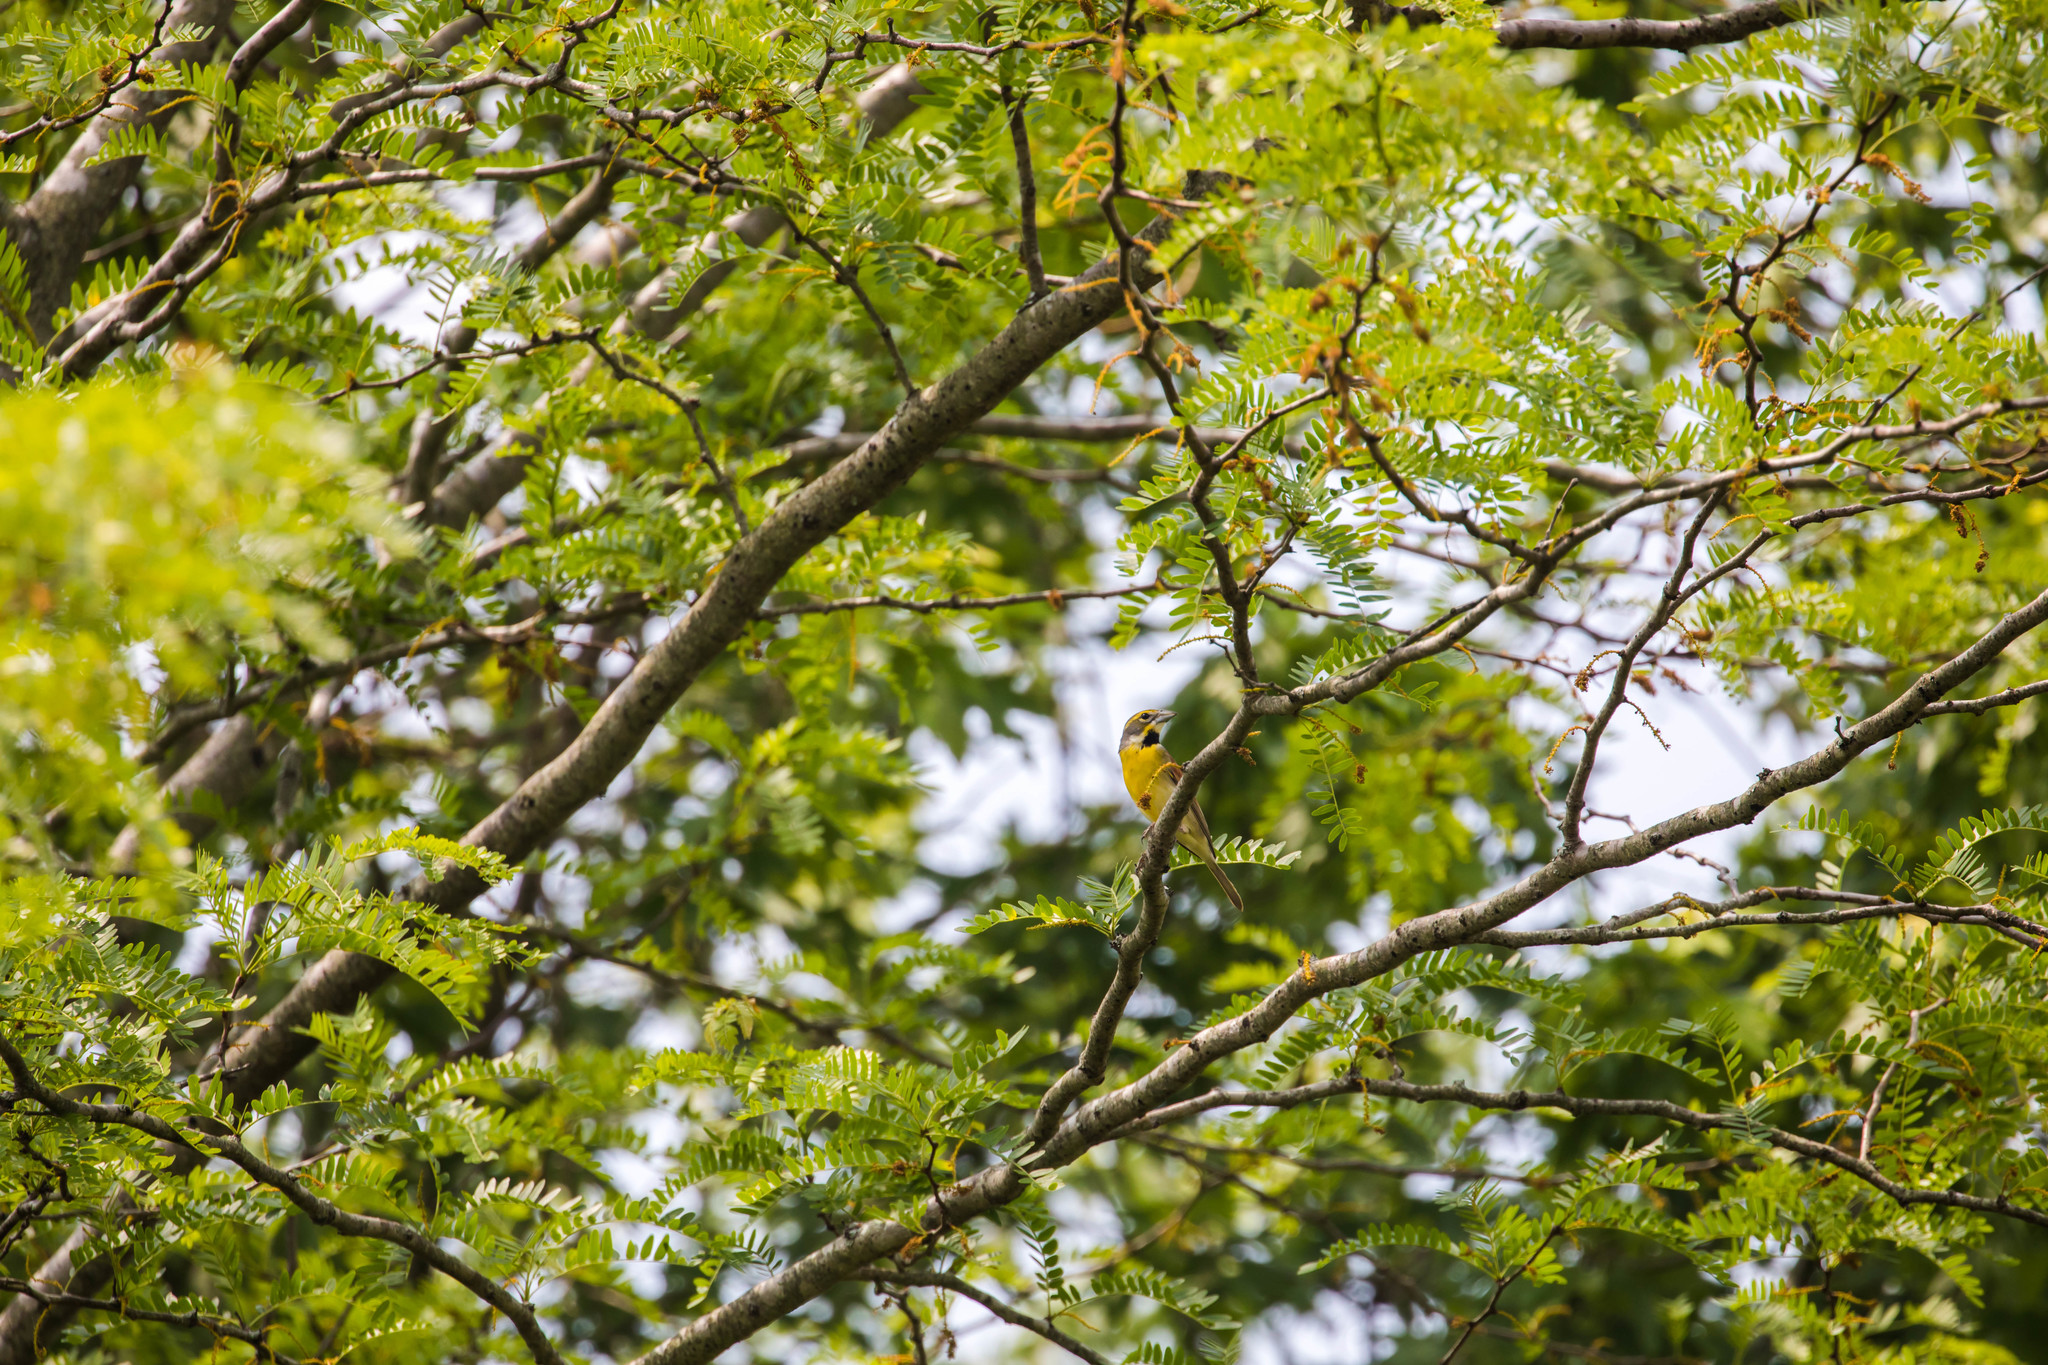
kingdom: Animalia
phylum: Chordata
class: Aves
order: Passeriformes
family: Cardinalidae
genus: Spiza
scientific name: Spiza americana
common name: Dickcissel
